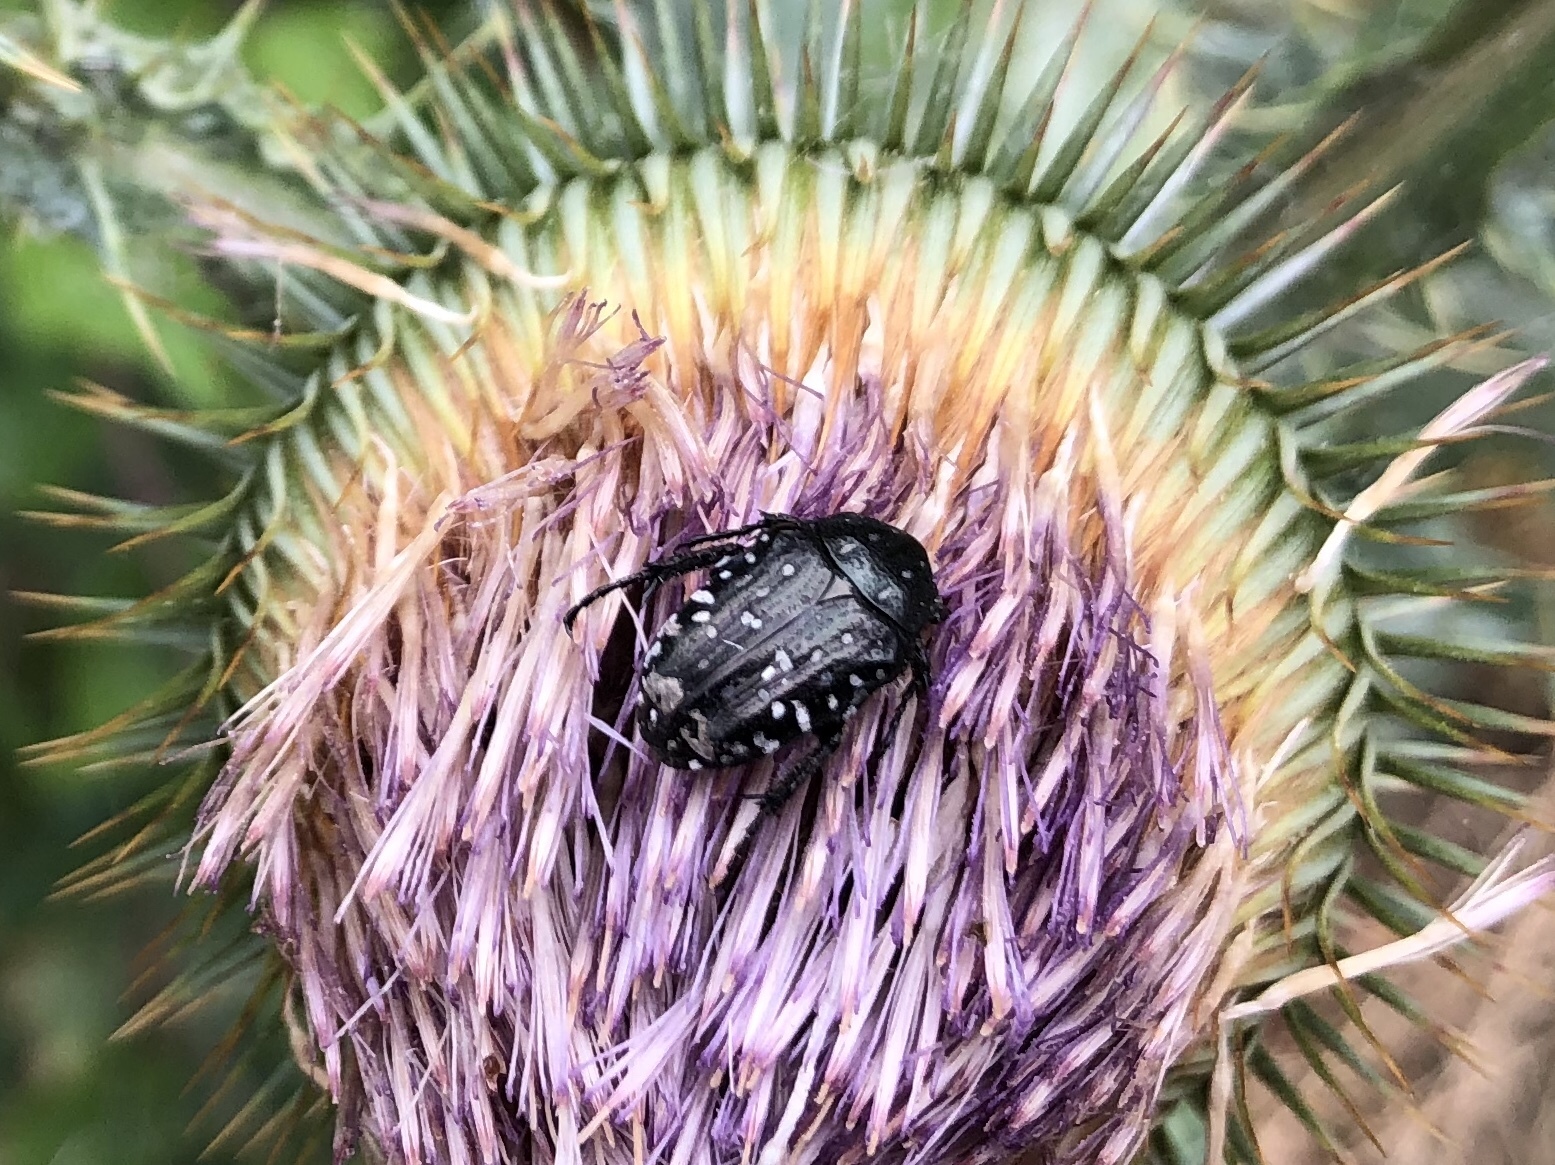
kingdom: Animalia
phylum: Arthropoda
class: Insecta
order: Coleoptera
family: Scarabaeidae
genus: Oxythyrea
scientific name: Oxythyrea funesta
